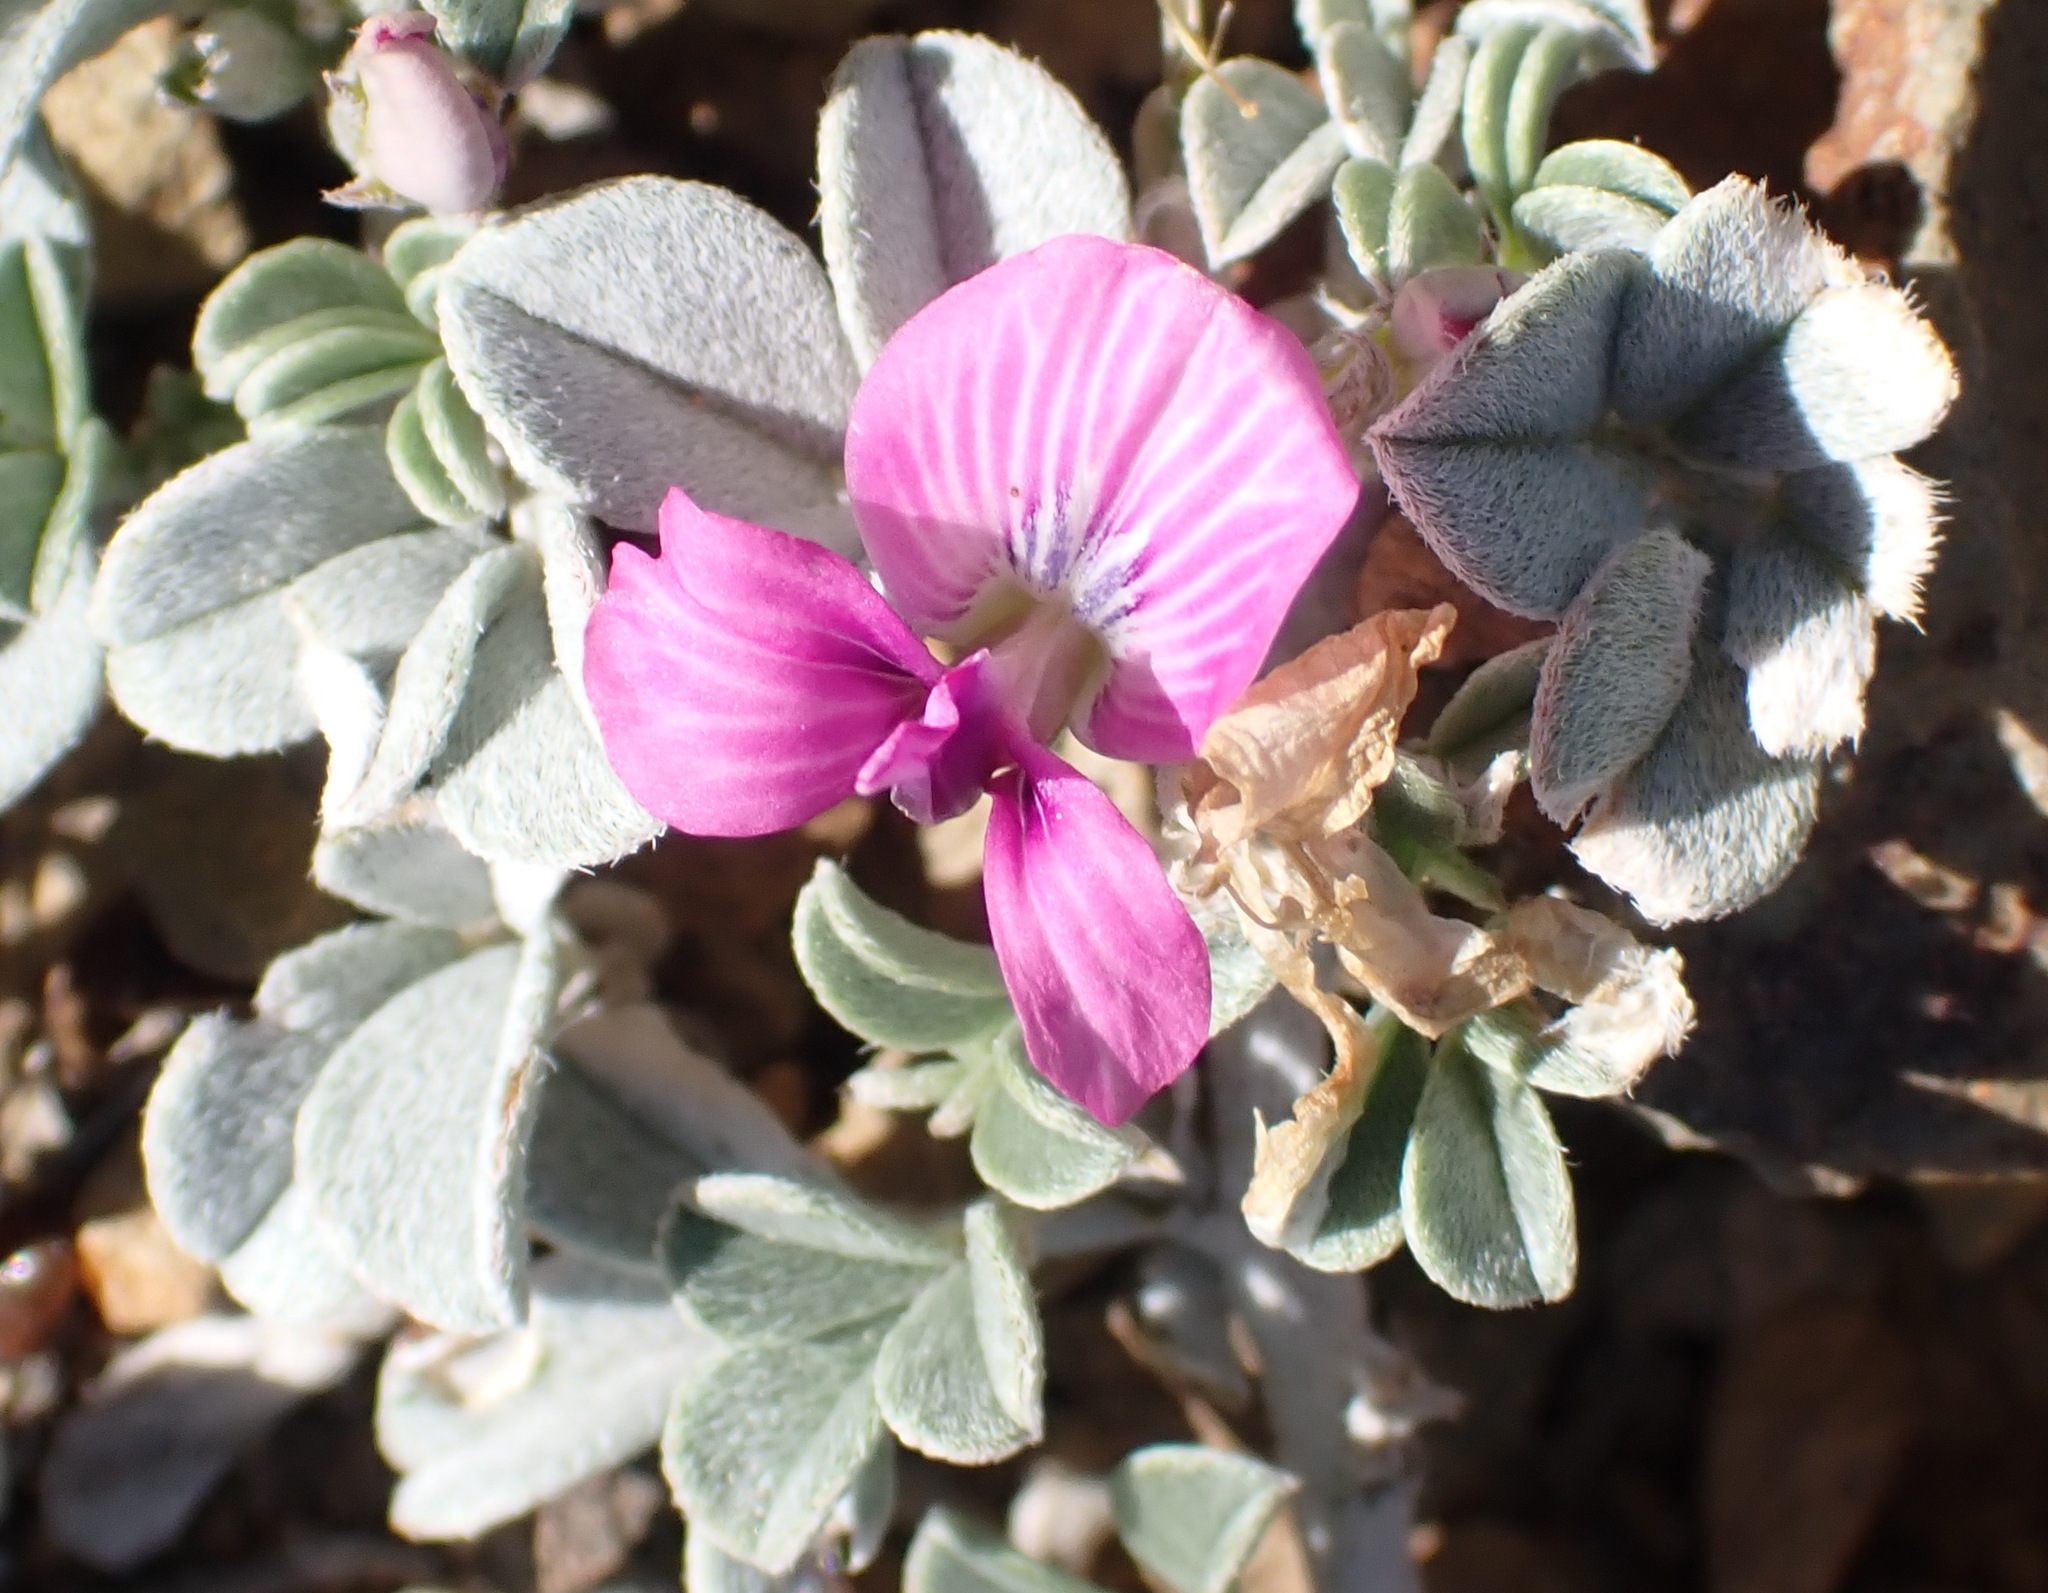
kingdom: Plantae
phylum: Tracheophyta
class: Magnoliopsida
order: Fabales
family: Fabaceae
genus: Indigastrum
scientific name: Indigastrum niveum
